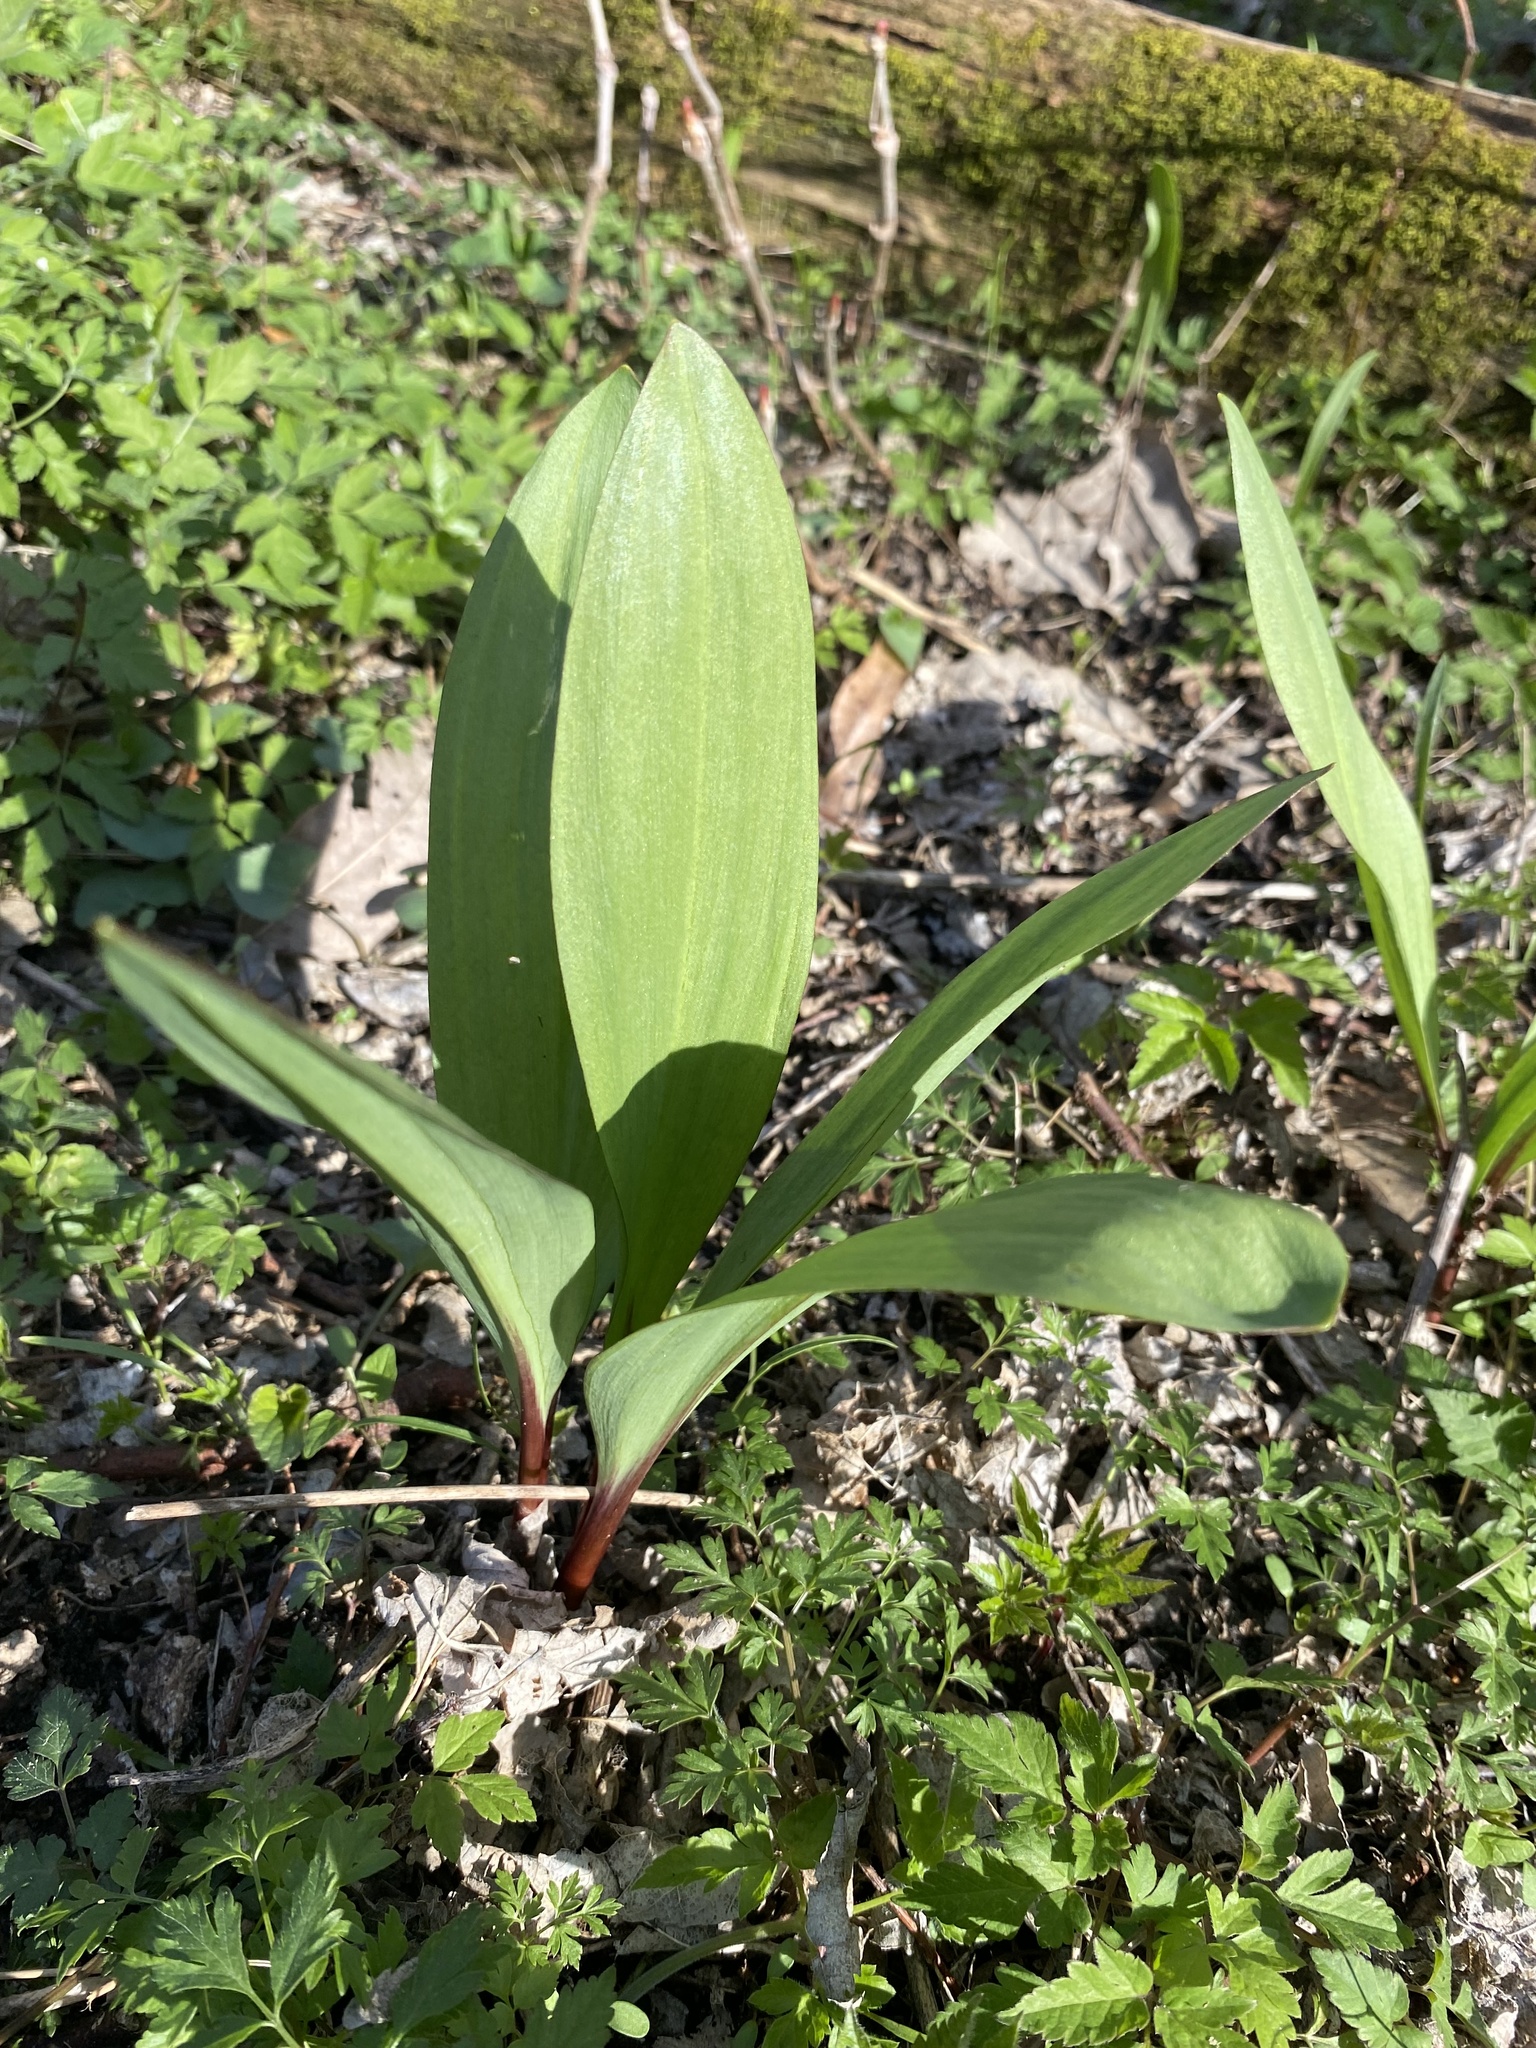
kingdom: Plantae
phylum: Tracheophyta
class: Liliopsida
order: Asparagales
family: Amaryllidaceae
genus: Allium
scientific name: Allium tricoccum
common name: Ramp
